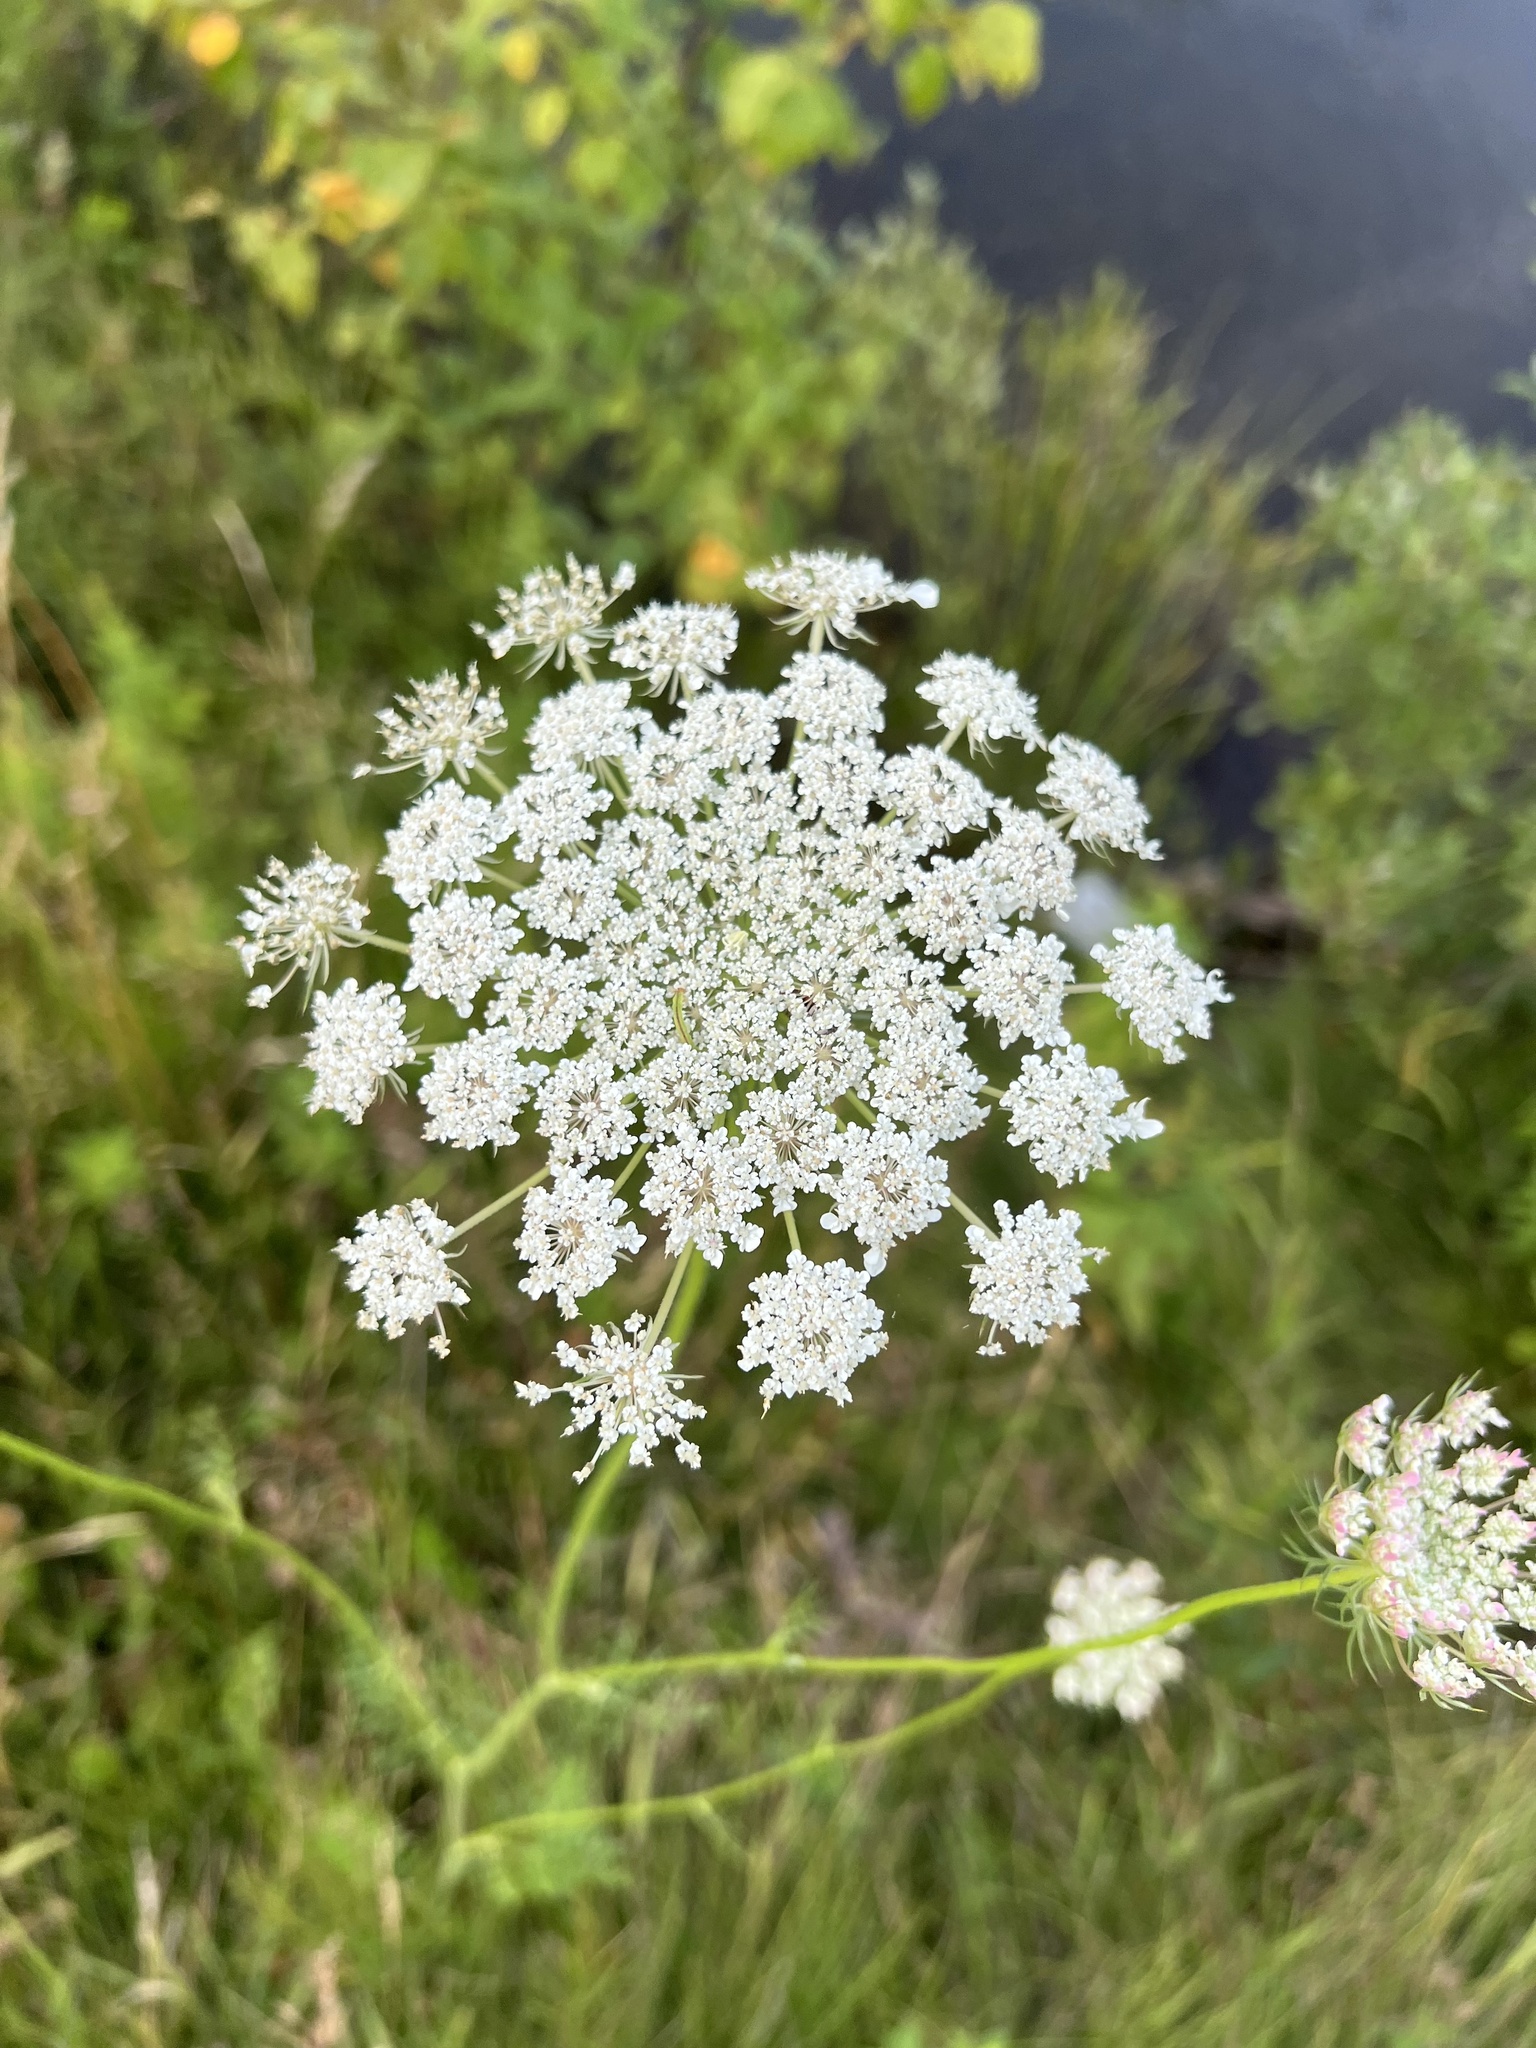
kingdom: Plantae
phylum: Tracheophyta
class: Magnoliopsida
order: Apiales
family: Apiaceae
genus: Daucus
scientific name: Daucus carota
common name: Wild carrot
